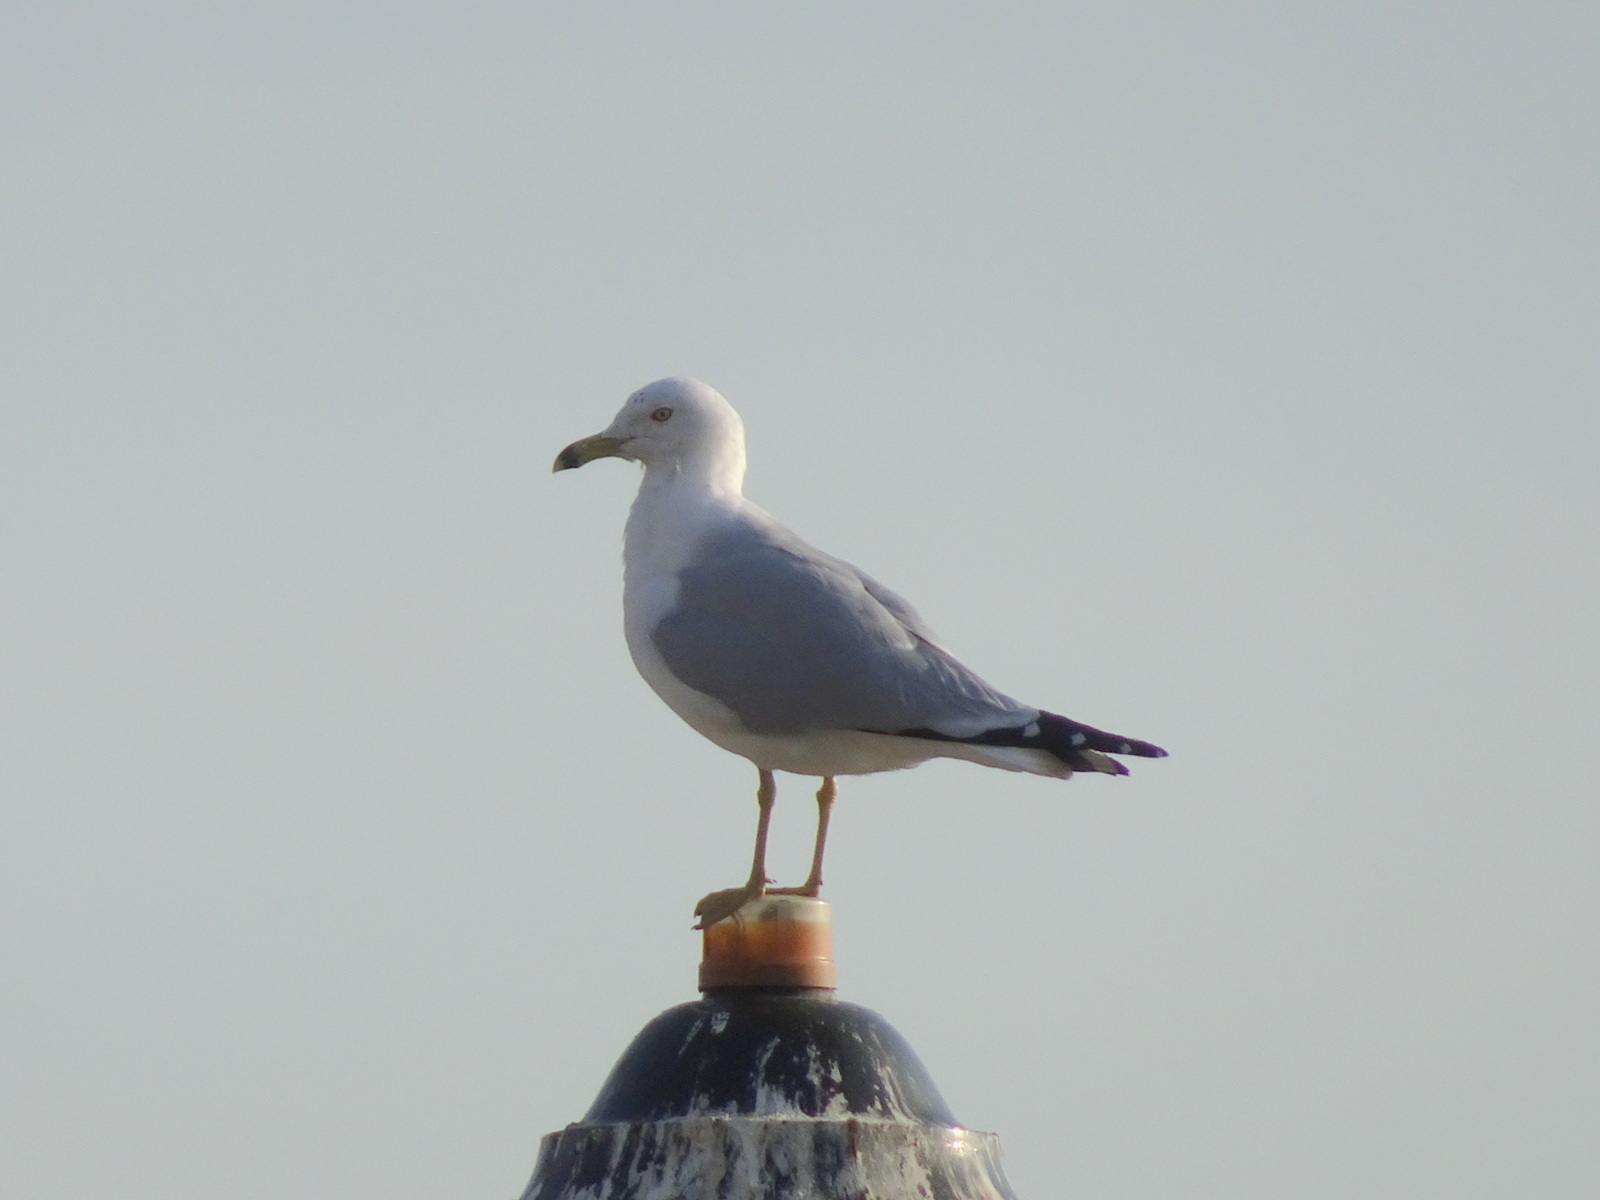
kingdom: Animalia
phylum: Chordata
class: Aves
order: Charadriiformes
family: Laridae
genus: Larus
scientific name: Larus delawarensis
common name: Ring-billed gull
